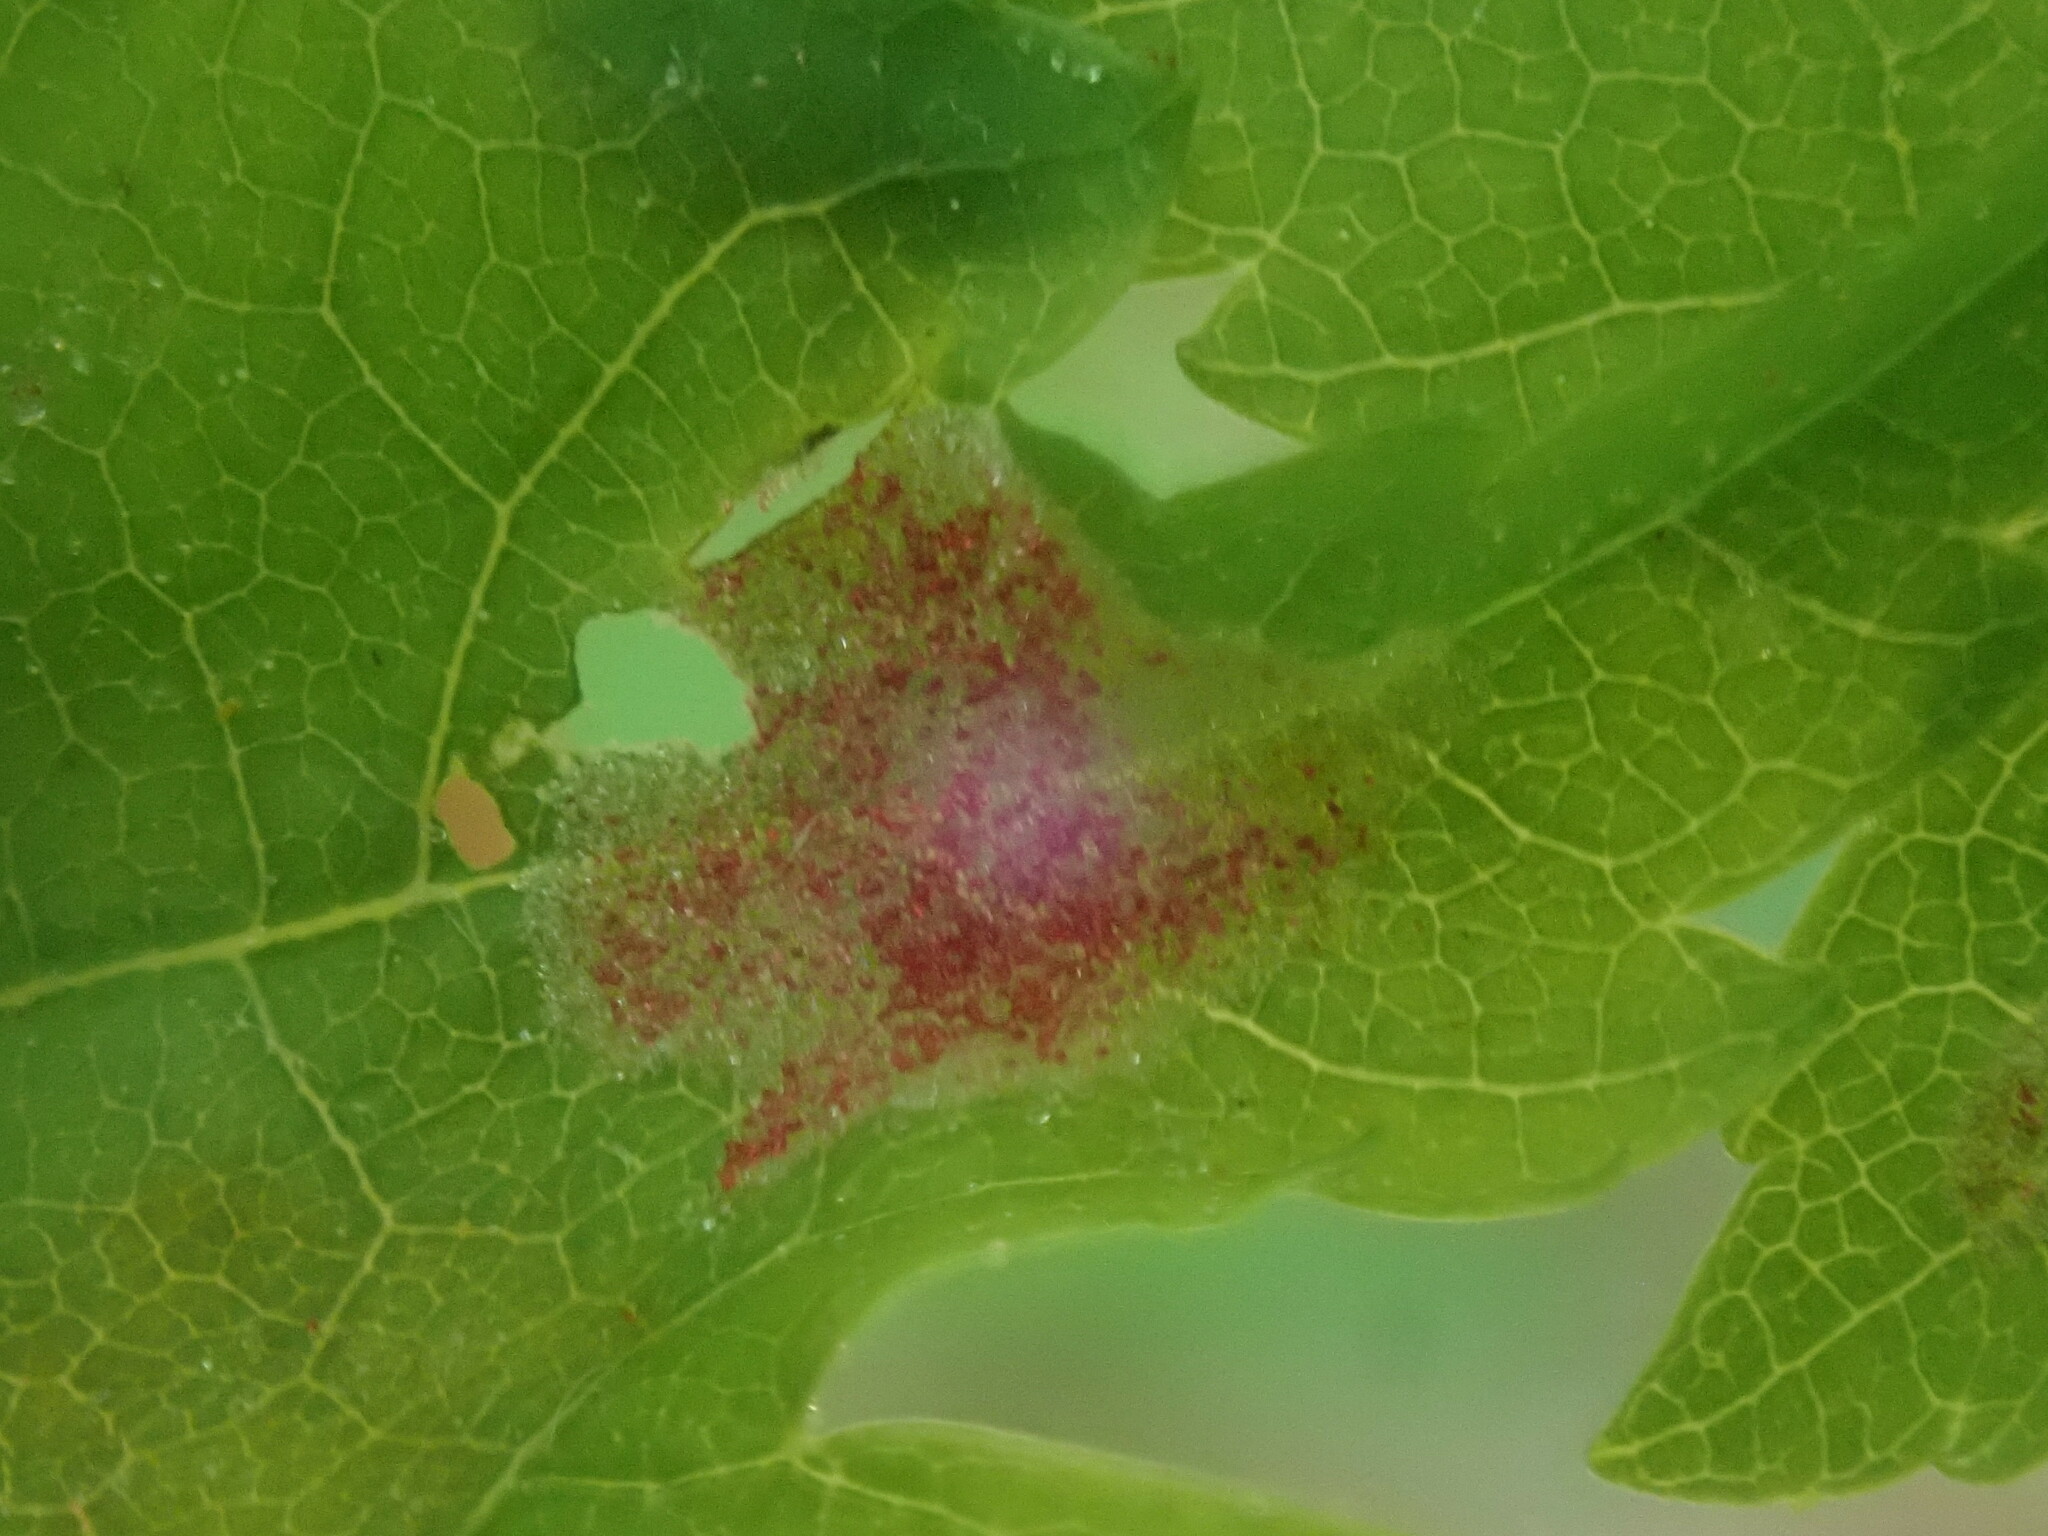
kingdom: Animalia
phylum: Arthropoda
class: Arachnida
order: Trombidiformes
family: Eriophyidae
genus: Aculus
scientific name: Aculus
